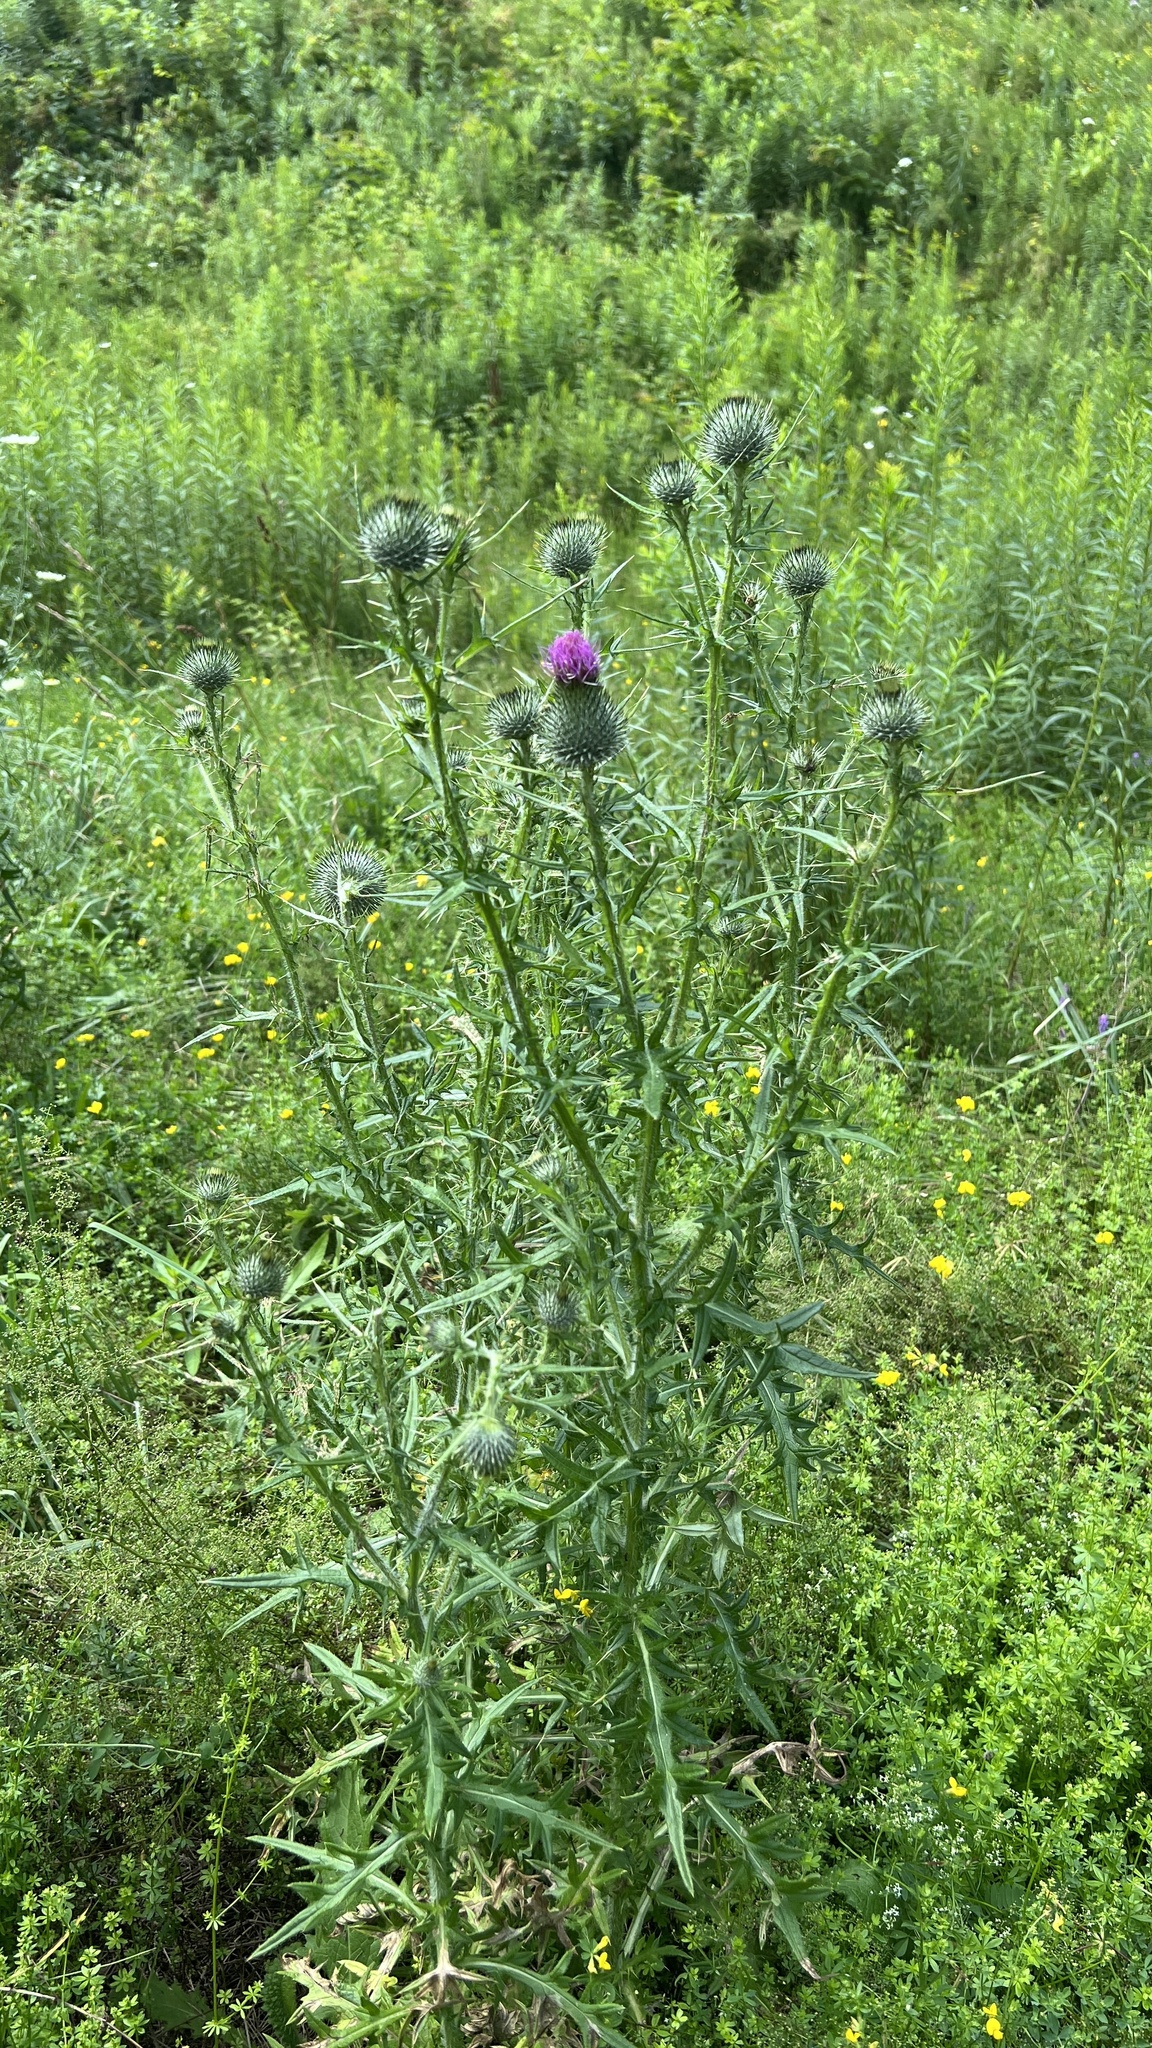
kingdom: Plantae
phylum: Tracheophyta
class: Magnoliopsida
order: Asterales
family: Asteraceae
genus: Cirsium
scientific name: Cirsium vulgare
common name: Bull thistle
